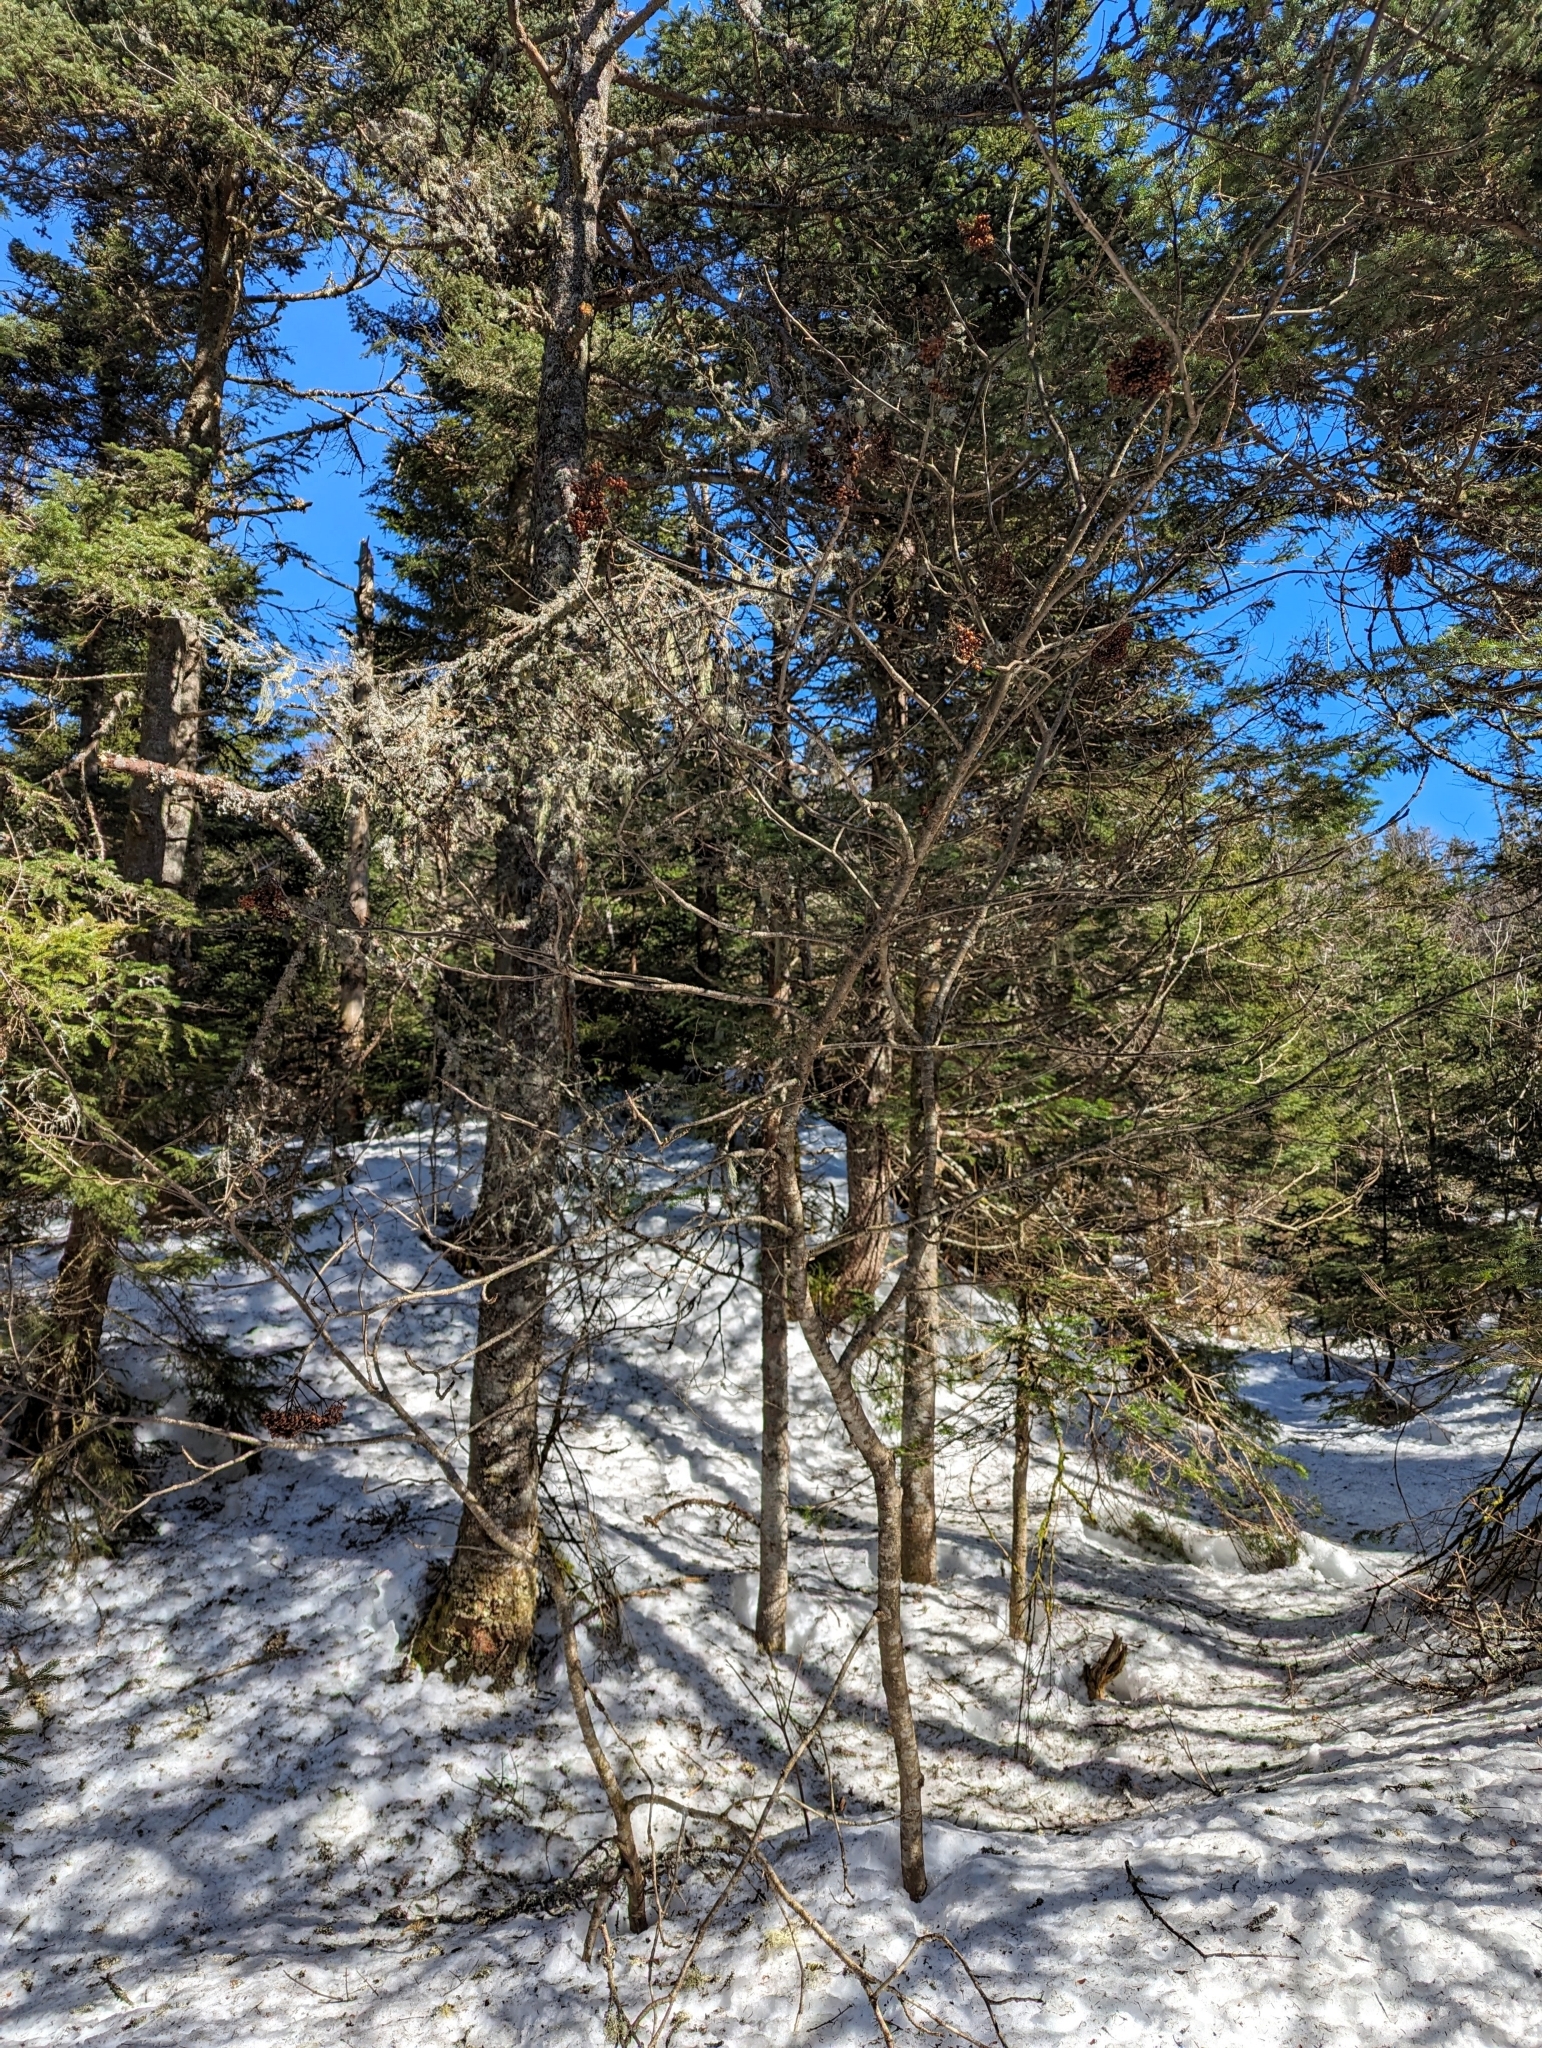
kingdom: Plantae
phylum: Tracheophyta
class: Magnoliopsida
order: Rosales
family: Rosaceae
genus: Sorbus
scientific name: Sorbus americana
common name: American mountain-ash
